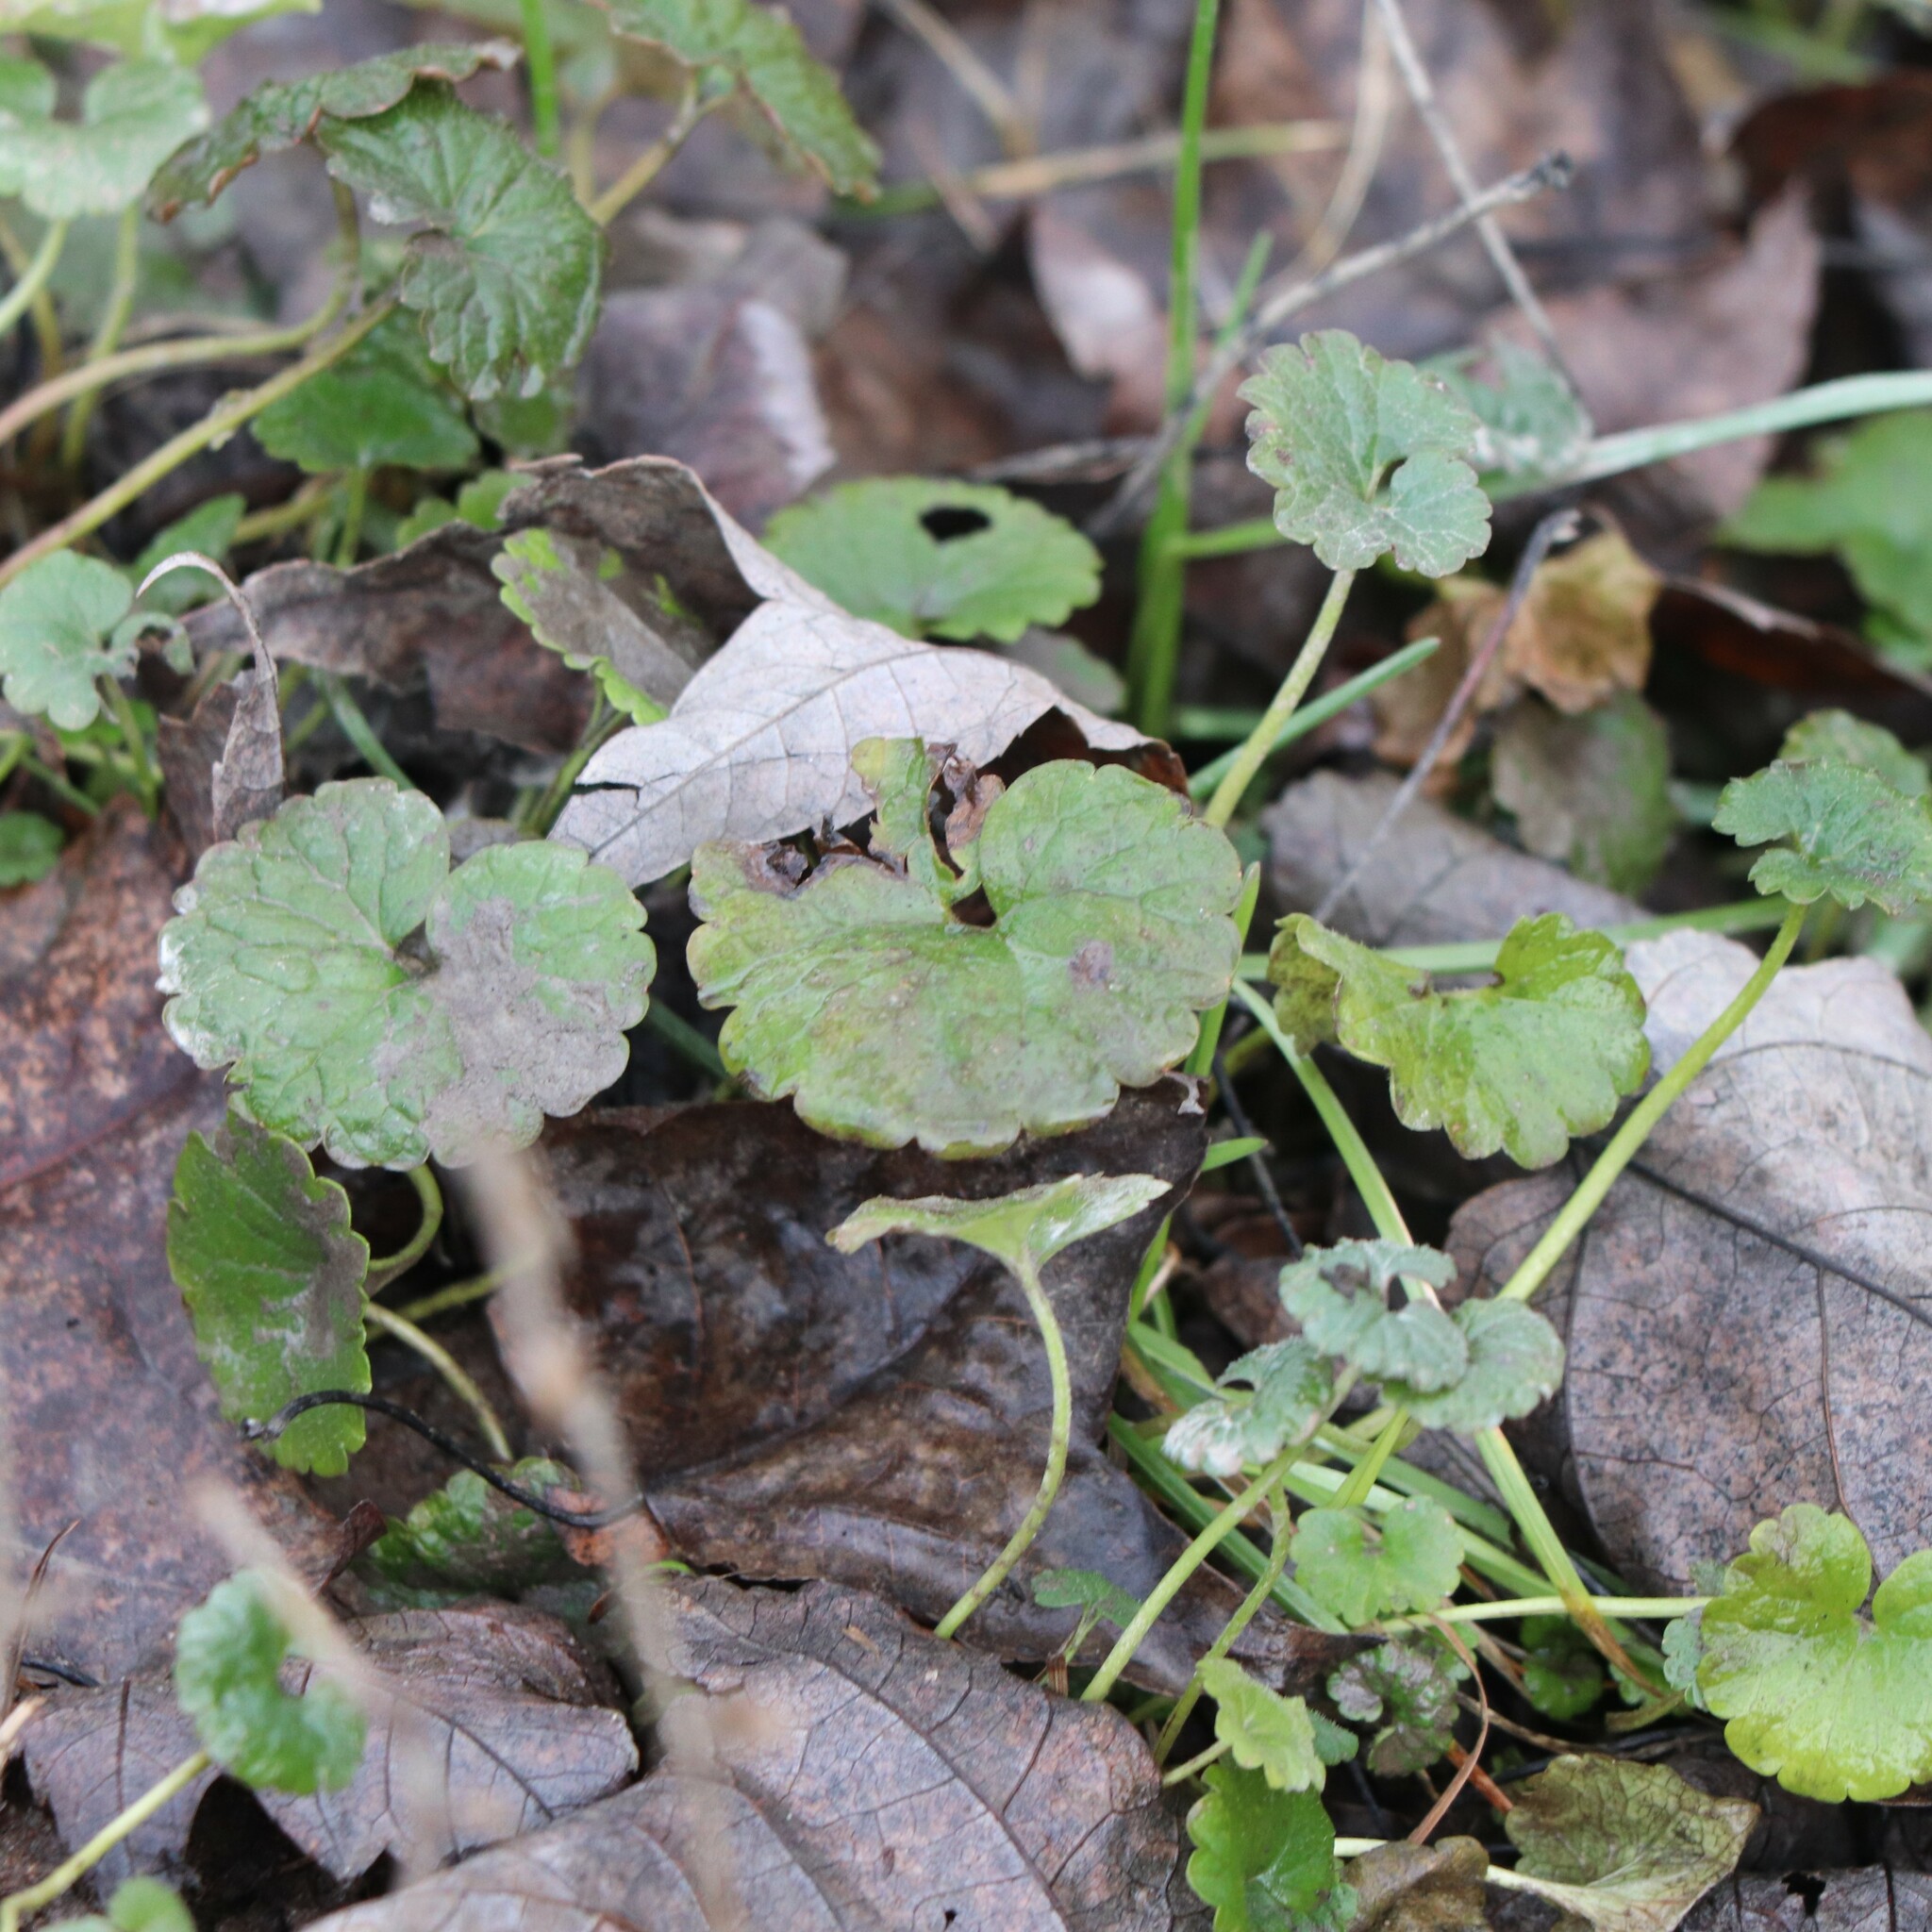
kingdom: Plantae
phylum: Tracheophyta
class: Magnoliopsida
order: Lamiales
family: Lamiaceae
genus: Glechoma
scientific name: Glechoma hederacea
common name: Ground ivy
